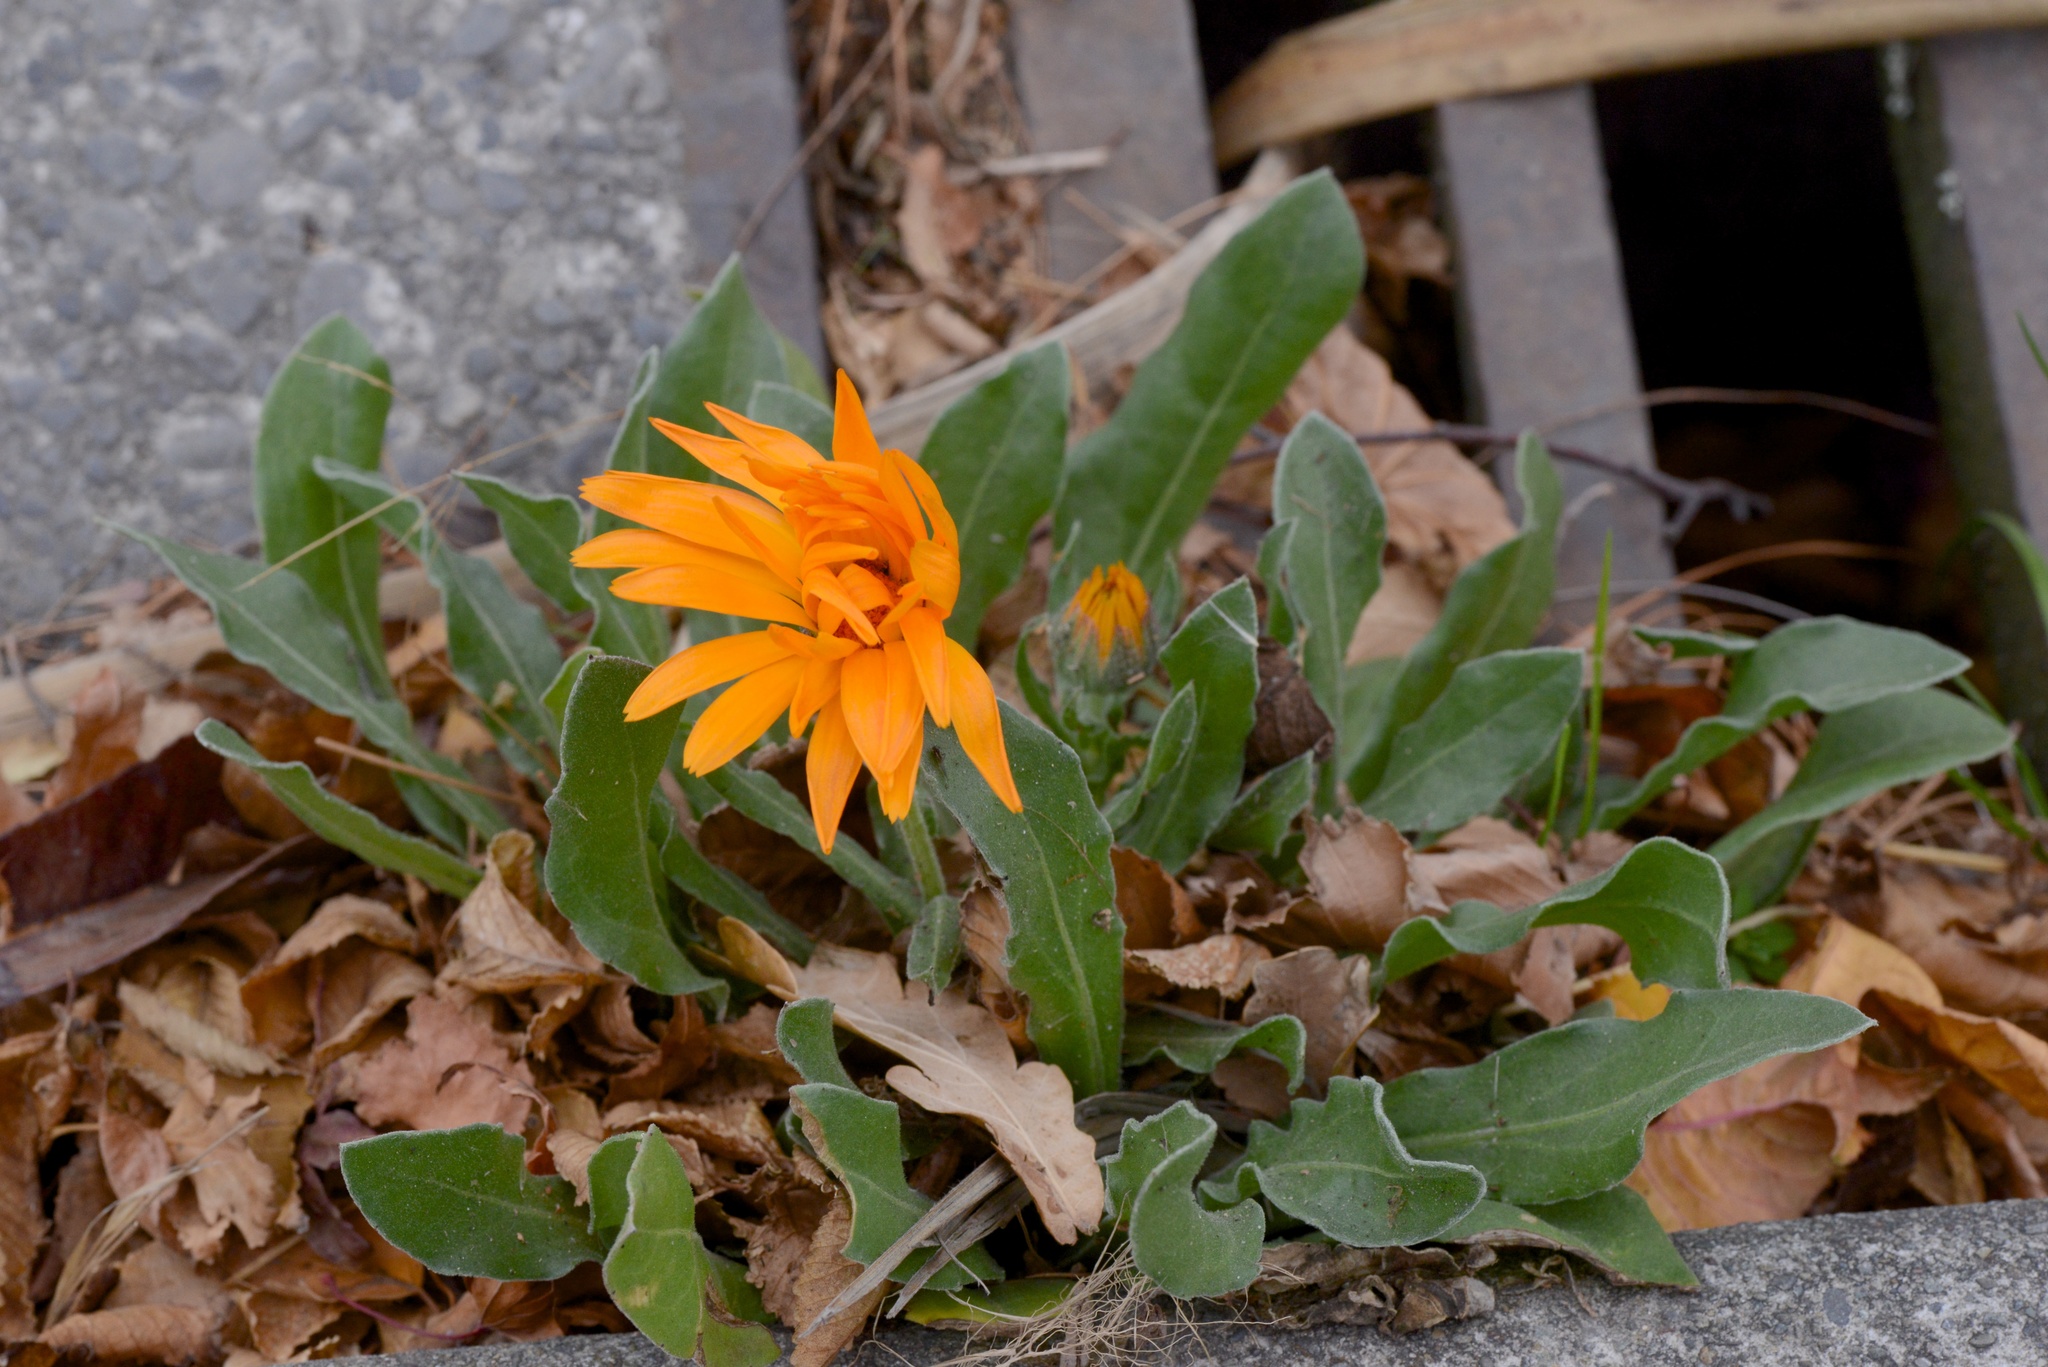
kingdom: Plantae
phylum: Tracheophyta
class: Magnoliopsida
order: Asterales
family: Asteraceae
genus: Calendula
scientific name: Calendula officinalis
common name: Pot marigold
